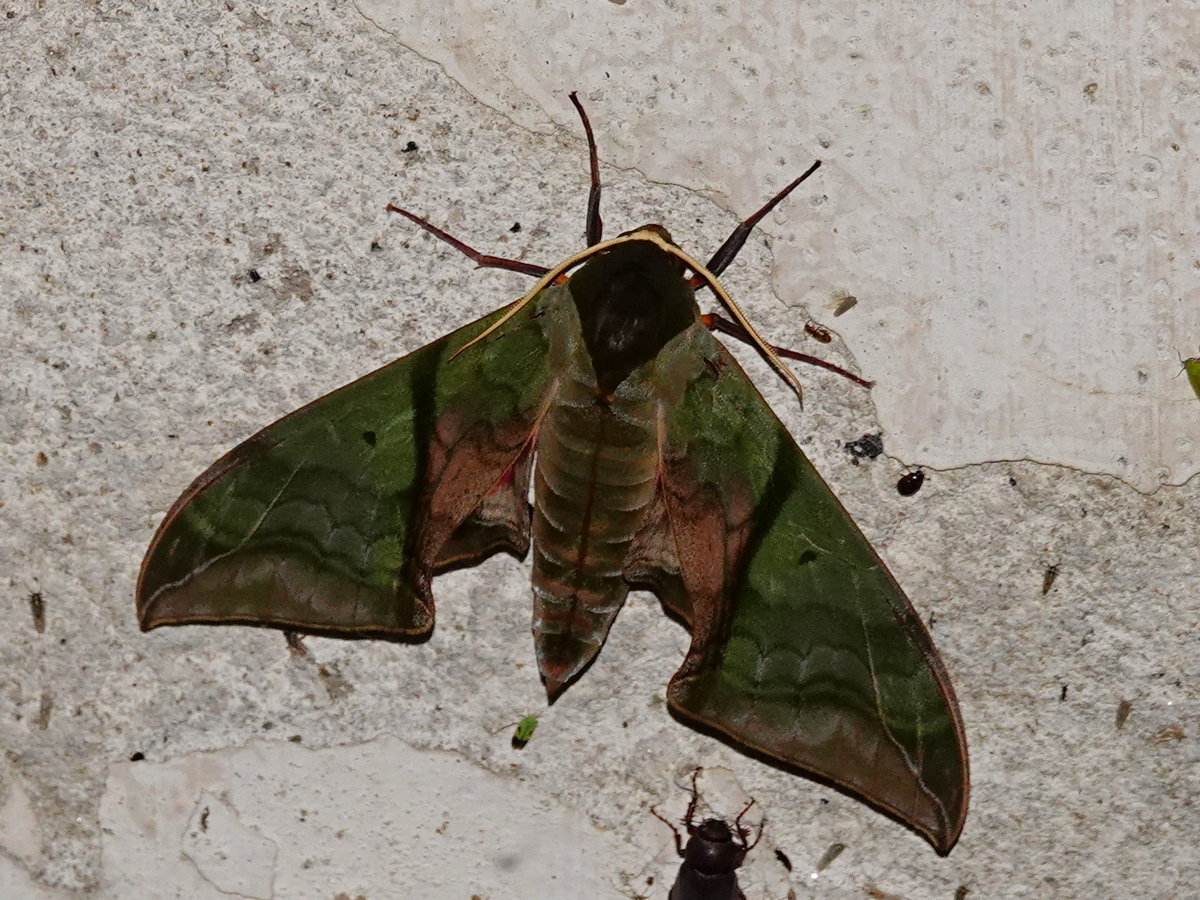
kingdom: Animalia
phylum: Arthropoda
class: Insecta
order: Lepidoptera
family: Sphingidae
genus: Callambulyx
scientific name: Callambulyx rubricosa
